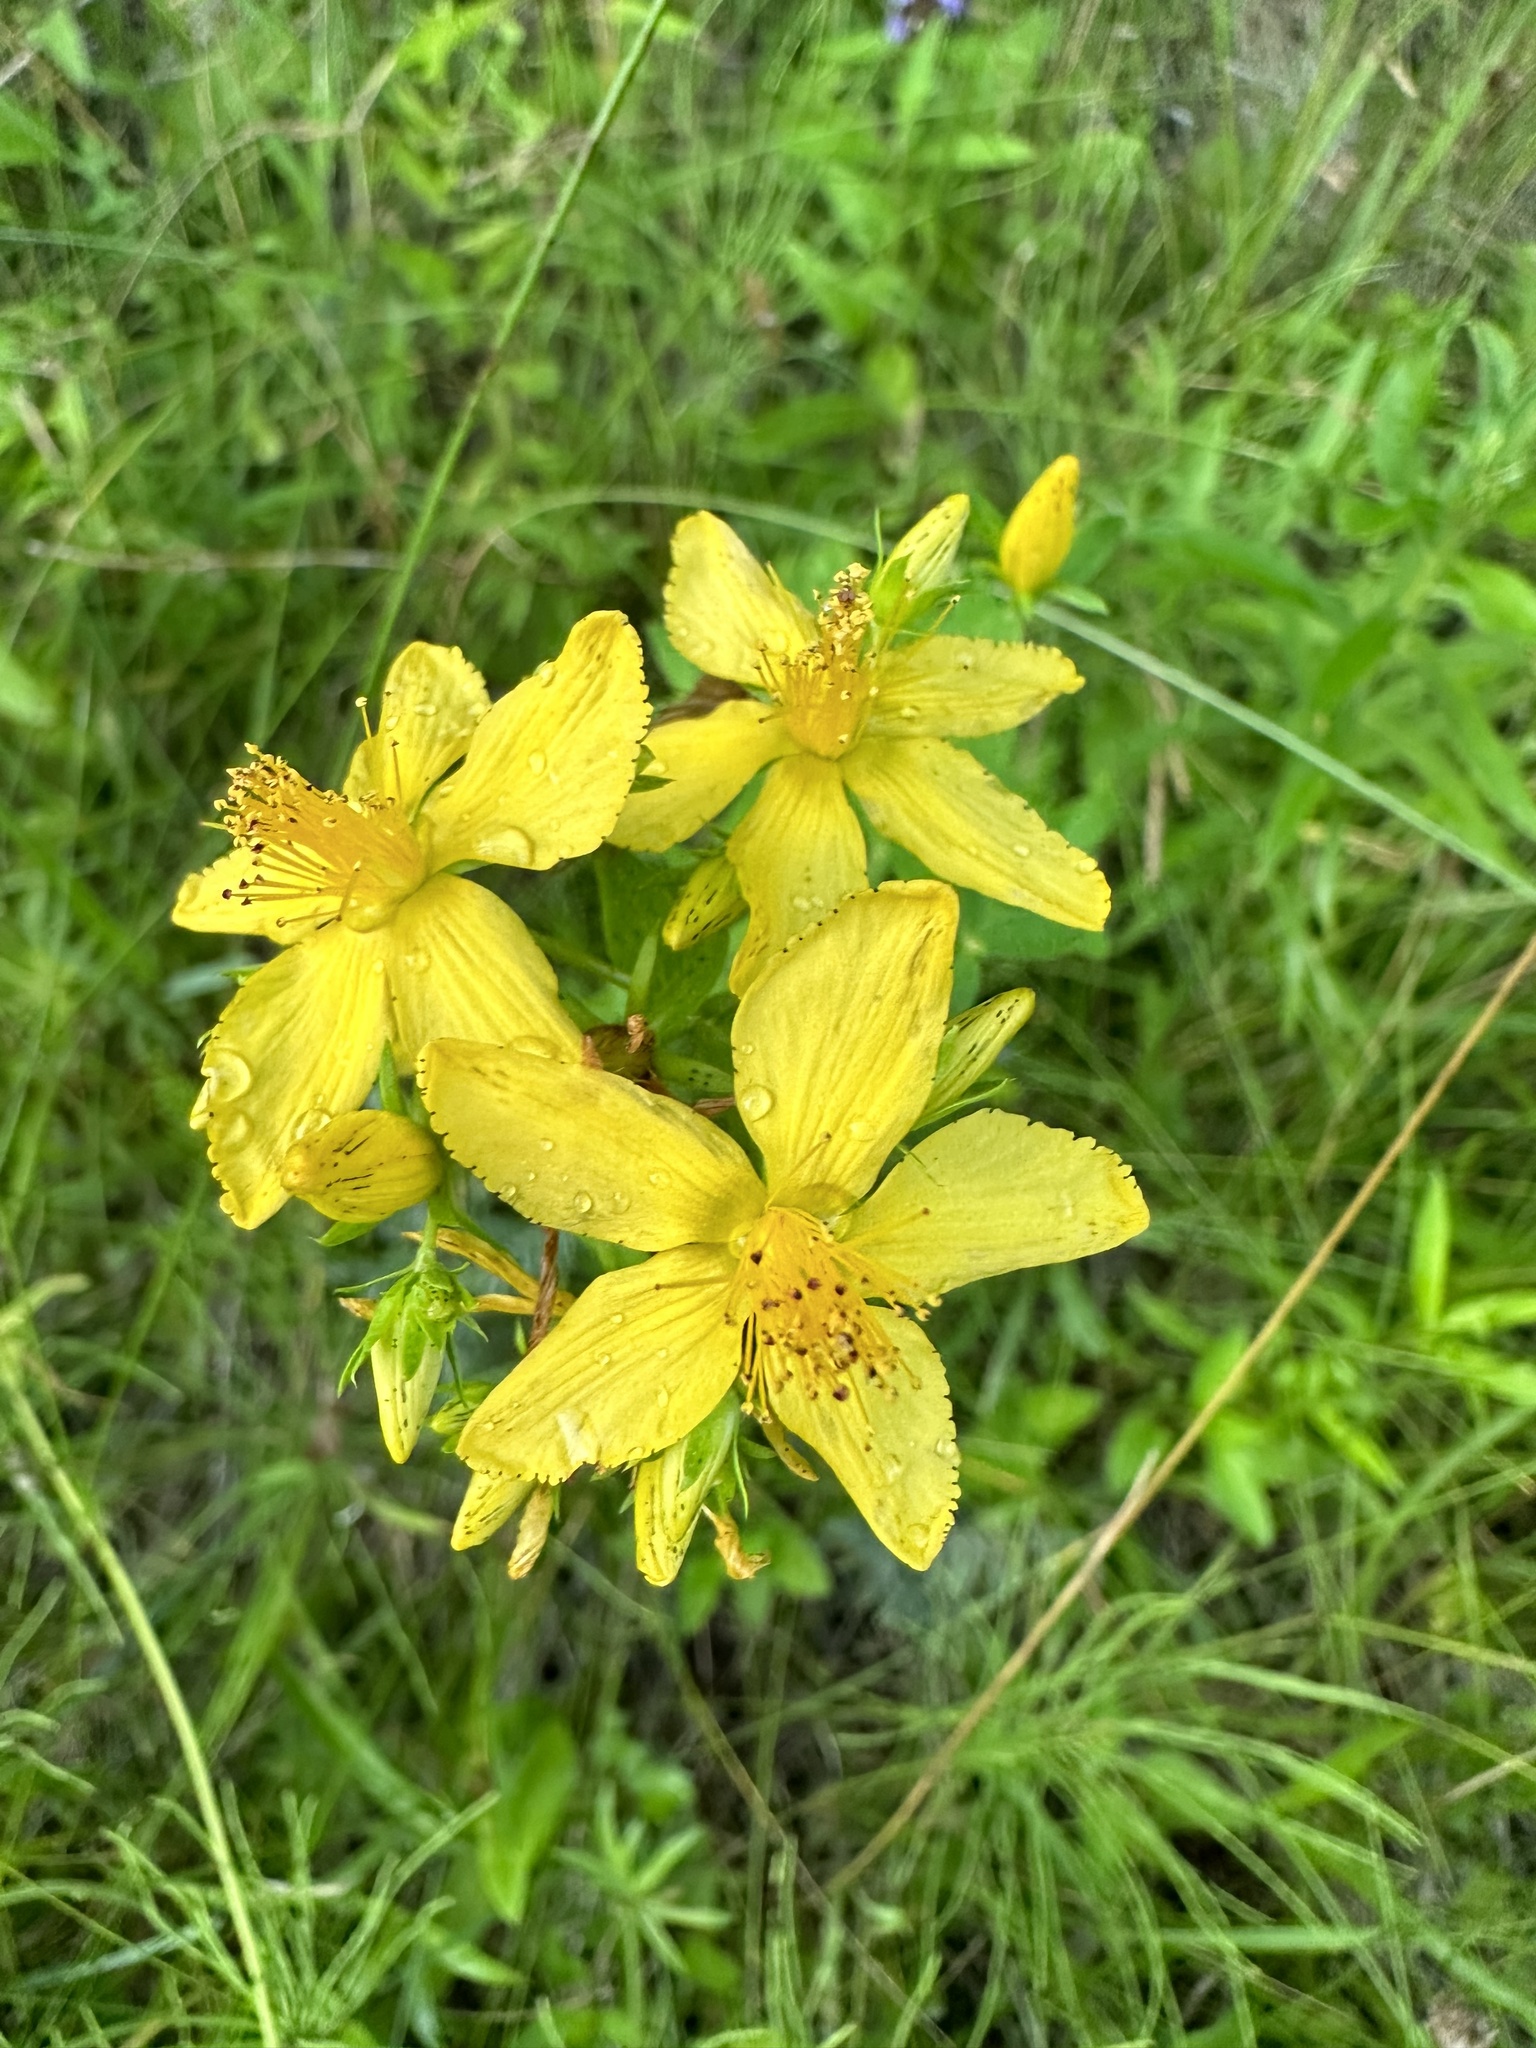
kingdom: Plantae
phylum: Tracheophyta
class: Magnoliopsida
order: Malpighiales
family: Hypericaceae
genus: Hypericum
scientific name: Hypericum perforatum
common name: Common st. johnswort
